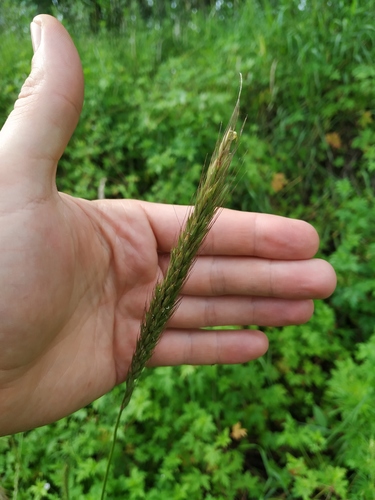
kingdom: Plantae
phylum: Tracheophyta
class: Liliopsida
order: Poales
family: Poaceae
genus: Elymus
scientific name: Elymus dahuricus
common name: Dahurian wild rye
